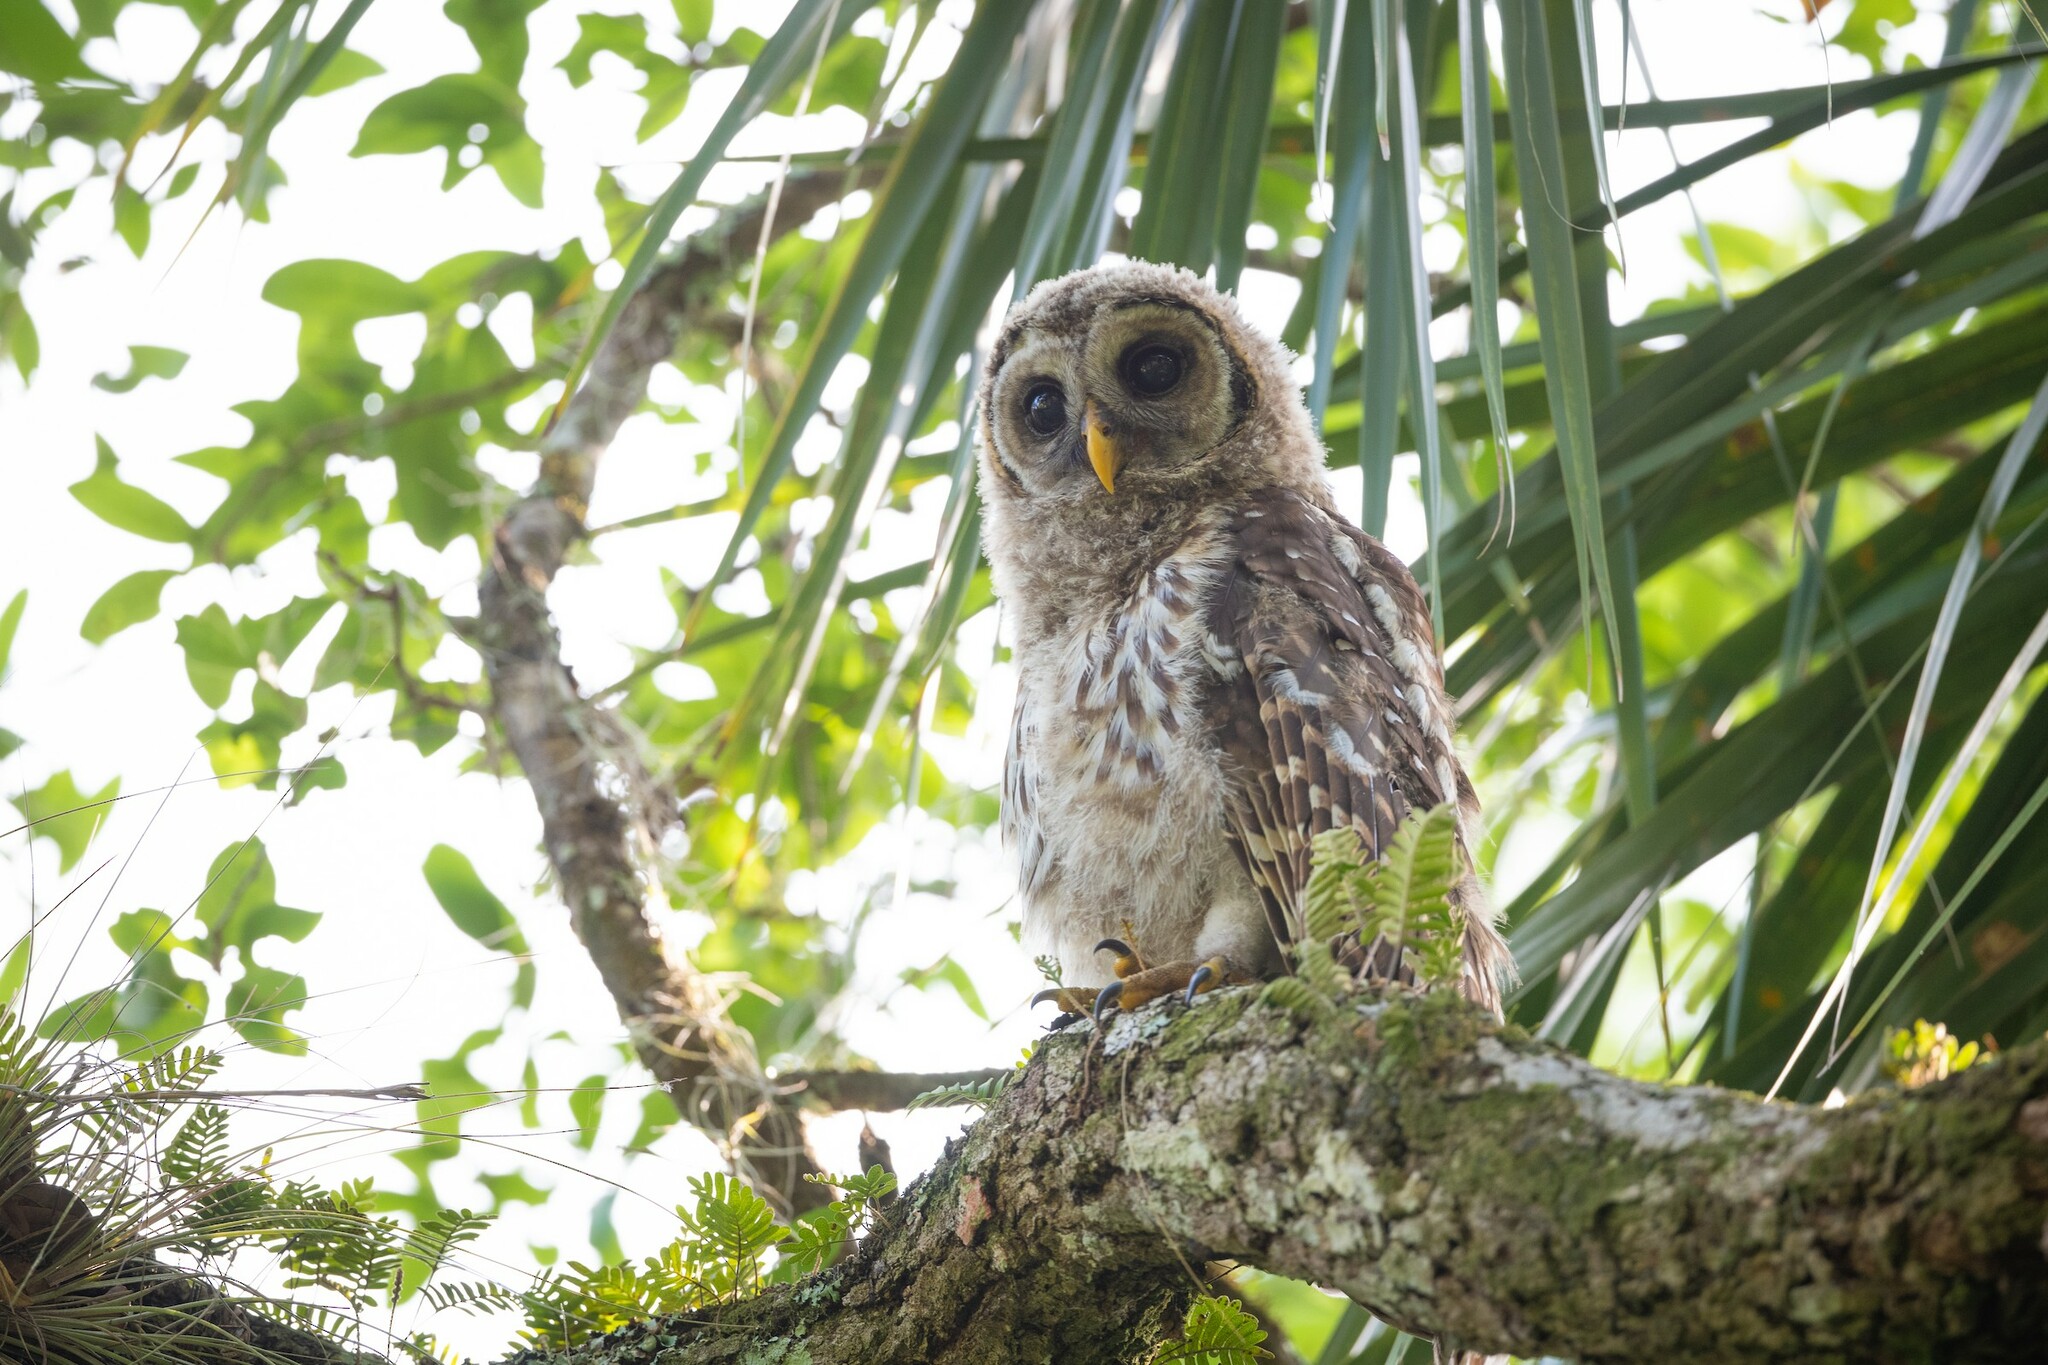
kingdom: Animalia
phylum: Chordata
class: Aves
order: Strigiformes
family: Strigidae
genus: Strix
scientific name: Strix varia
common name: Barred owl
